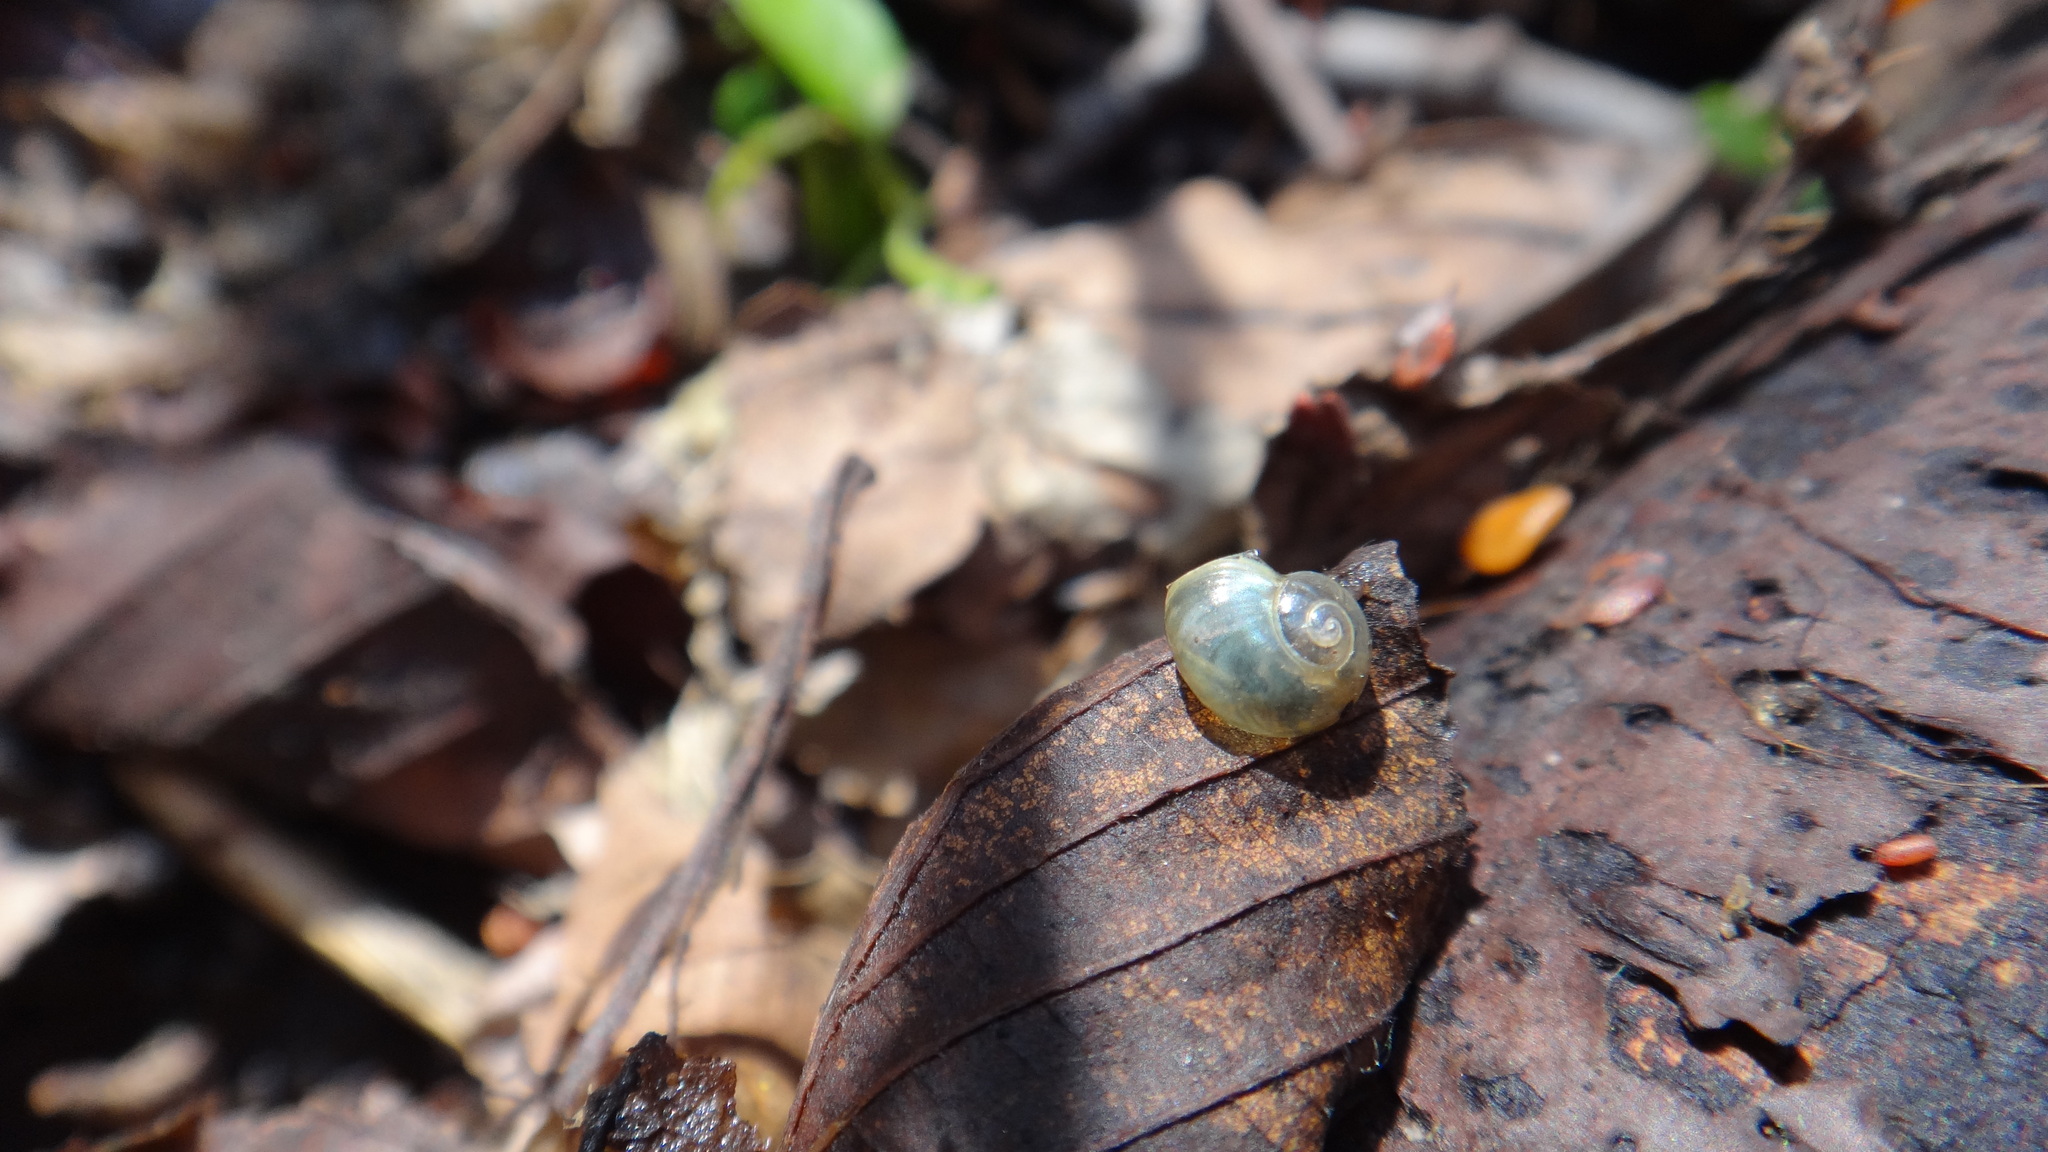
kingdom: Animalia
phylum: Mollusca
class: Gastropoda
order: Stylommatophora
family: Vitrinidae
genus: Vitrina
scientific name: Vitrina pellucida
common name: Pellucid glass snail
